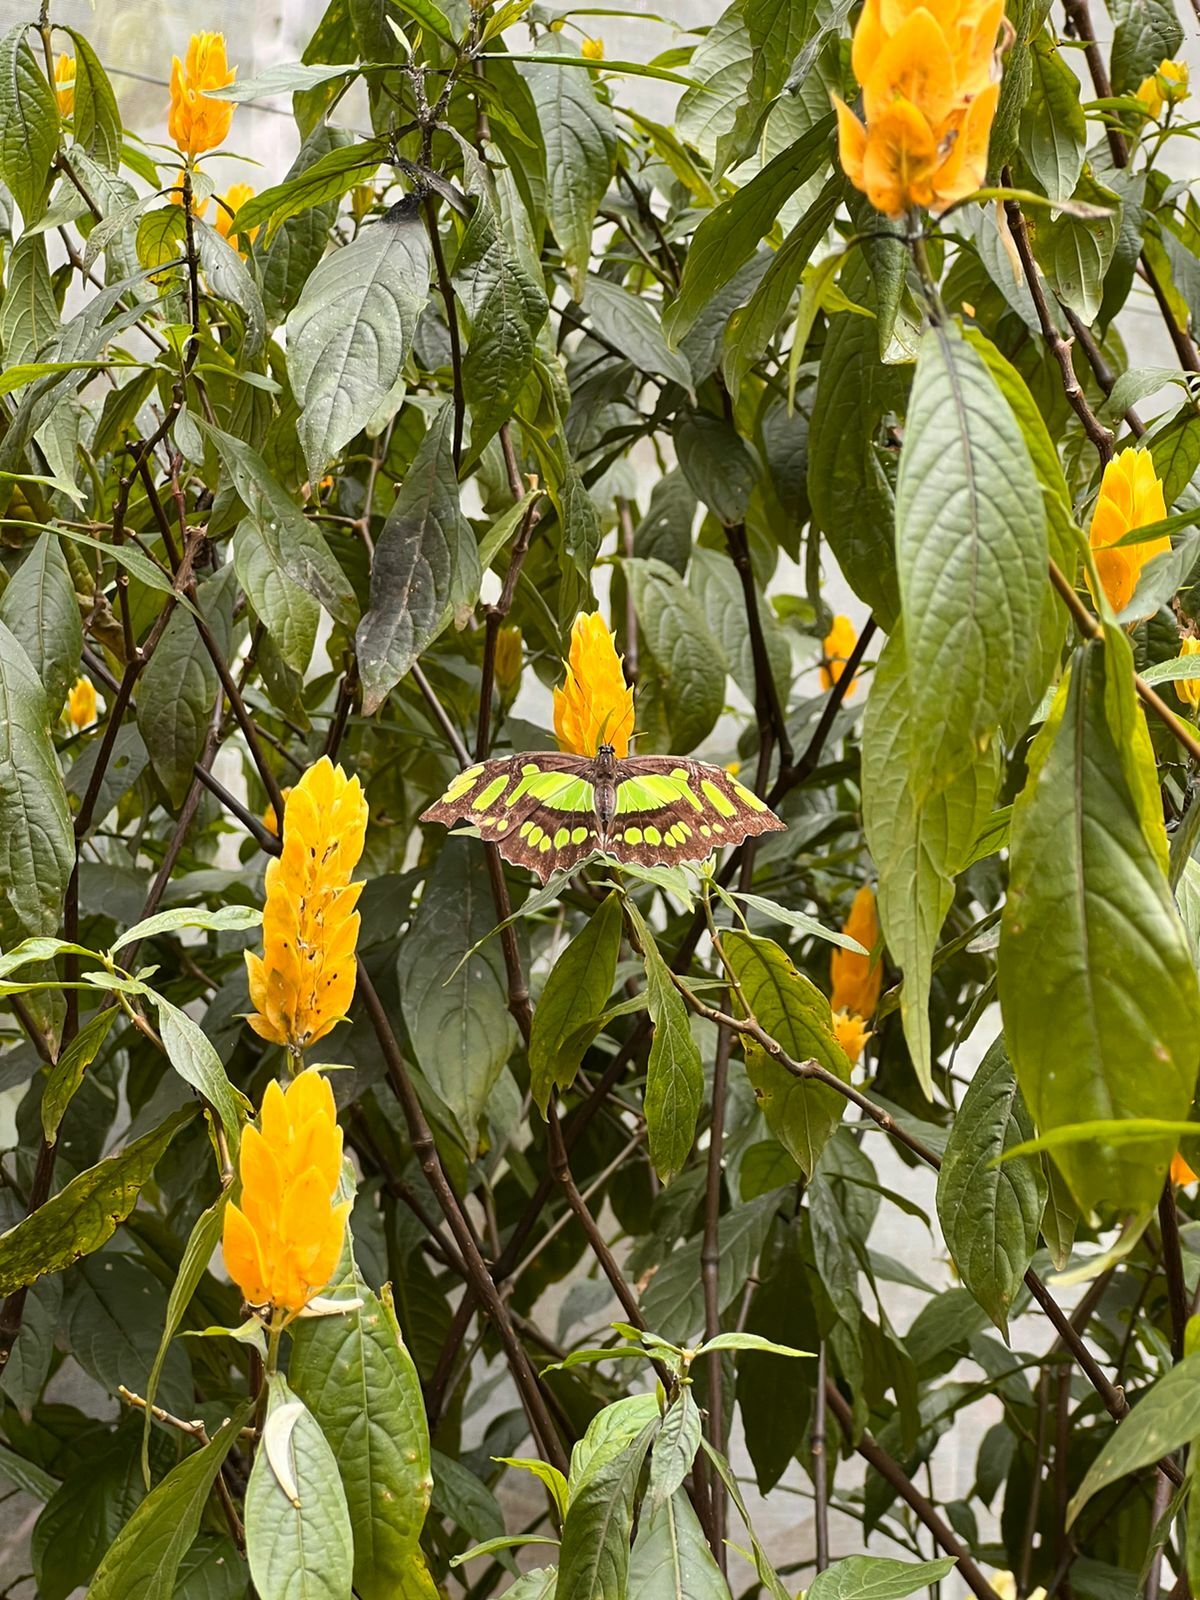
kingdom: Animalia
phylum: Arthropoda
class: Insecta
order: Lepidoptera
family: Nymphalidae
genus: Siproeta
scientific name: Siproeta stelenes
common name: Malachite
